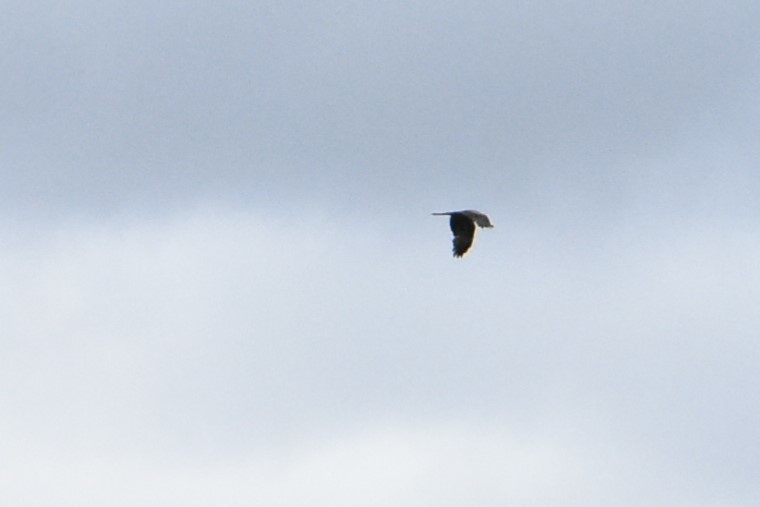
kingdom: Animalia
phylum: Chordata
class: Aves
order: Pelecaniformes
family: Ardeidae
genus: Ardea
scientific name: Ardea cinerea
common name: Grey heron
